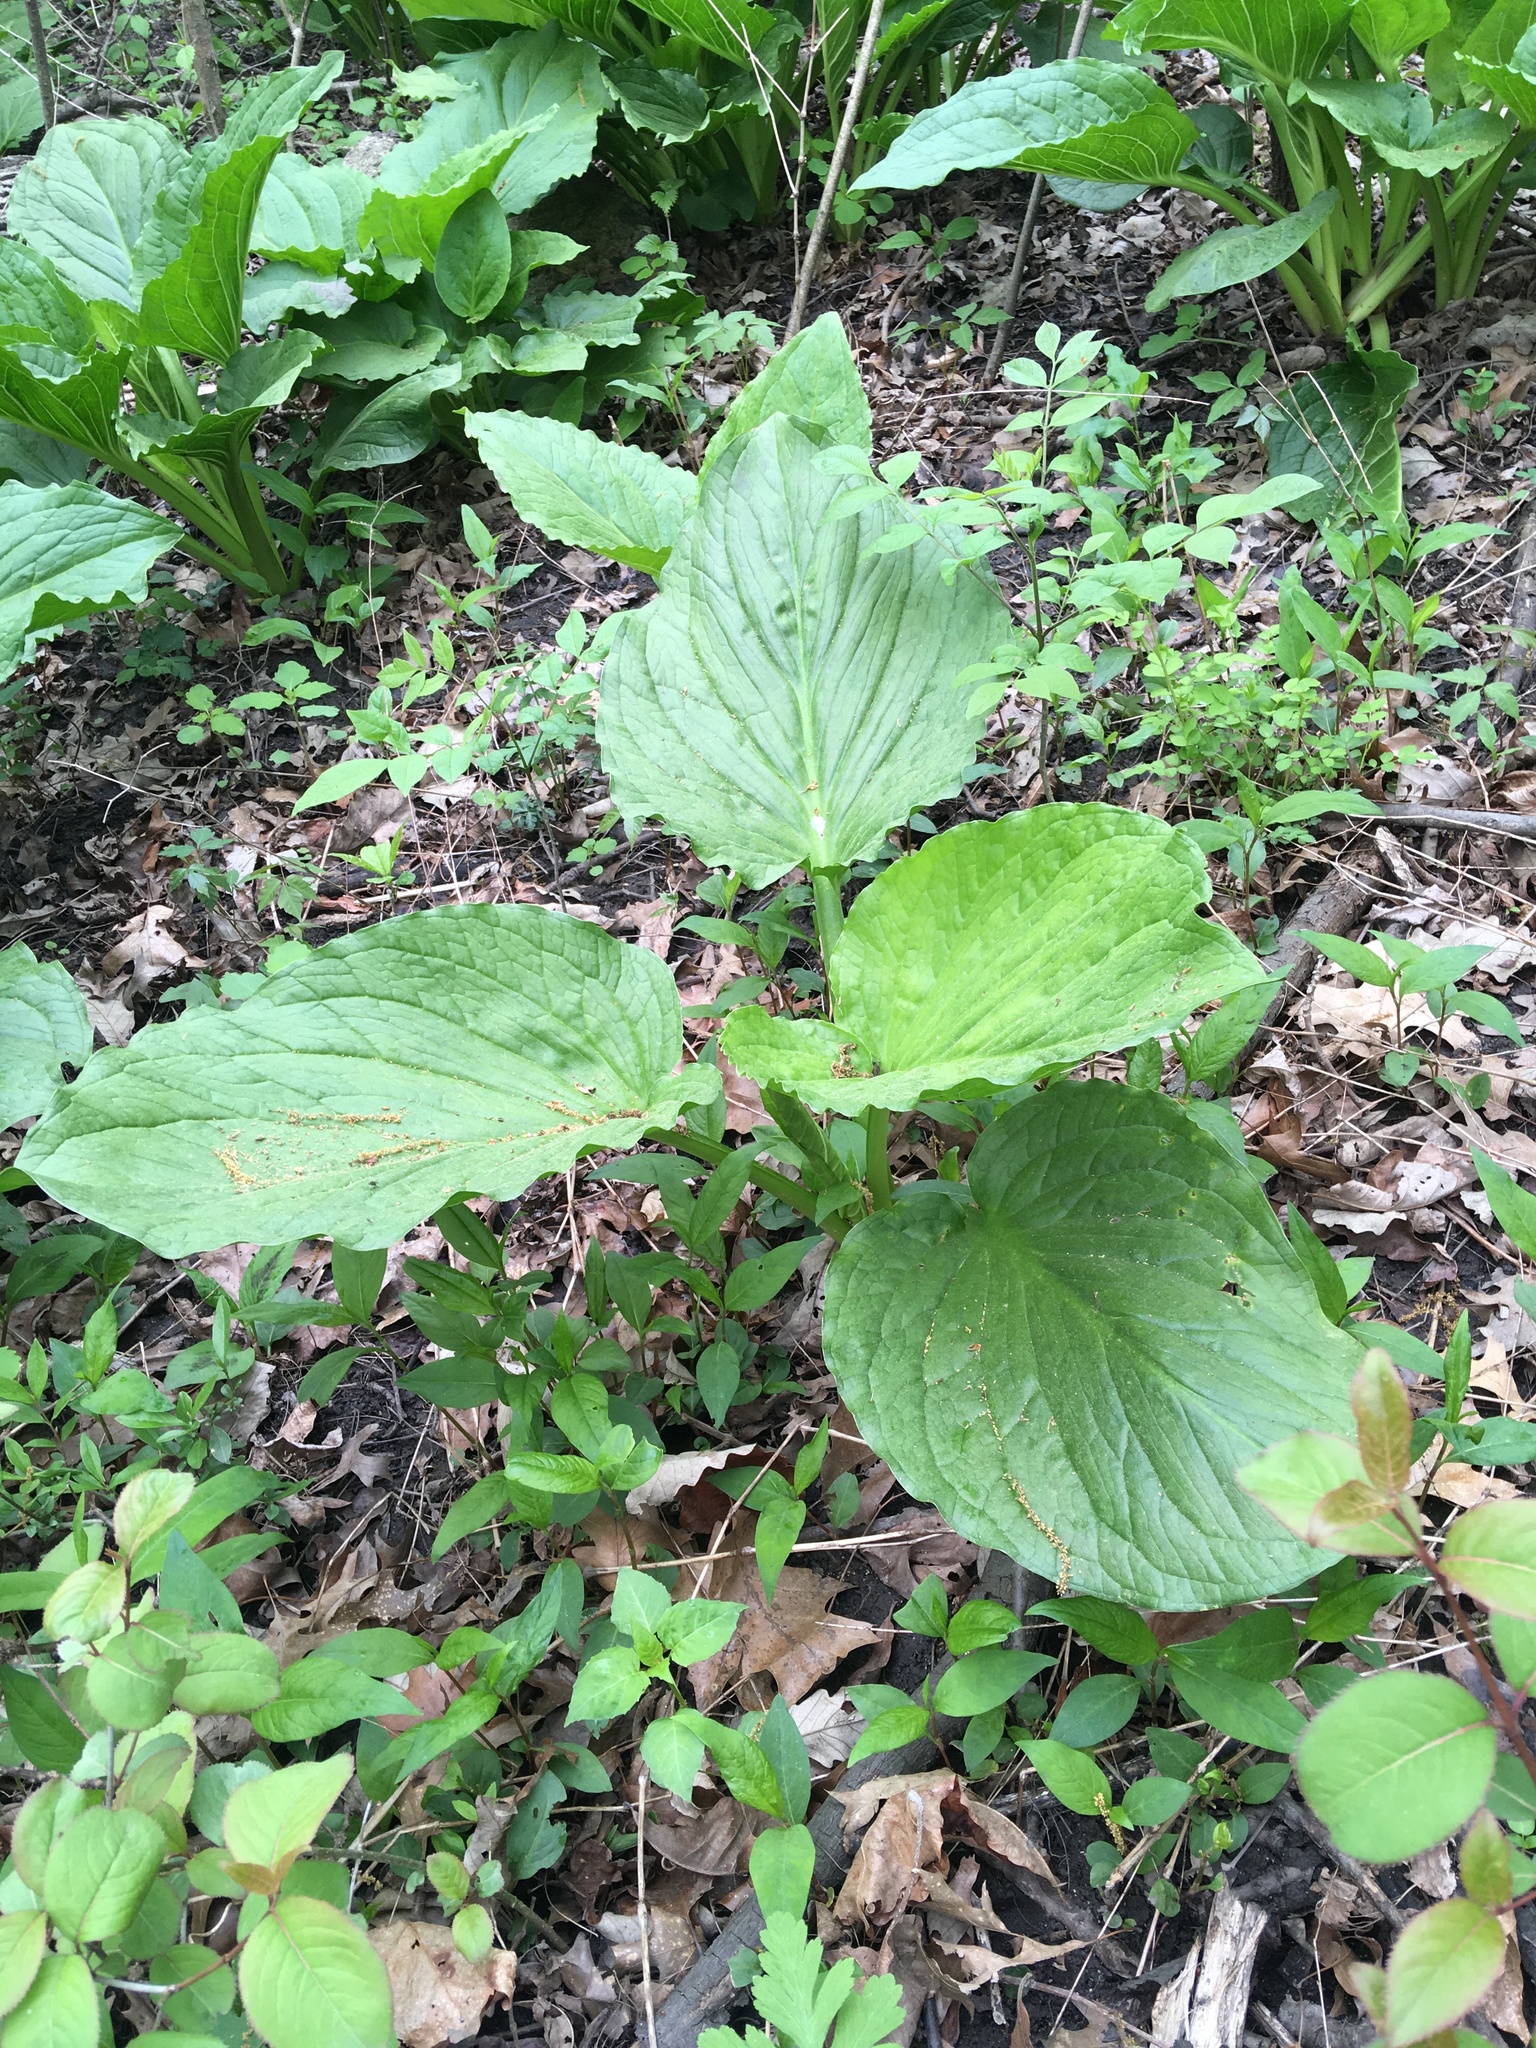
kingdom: Plantae
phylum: Tracheophyta
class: Liliopsida
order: Alismatales
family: Araceae
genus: Symplocarpus
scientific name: Symplocarpus foetidus
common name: Eastern skunk cabbage
